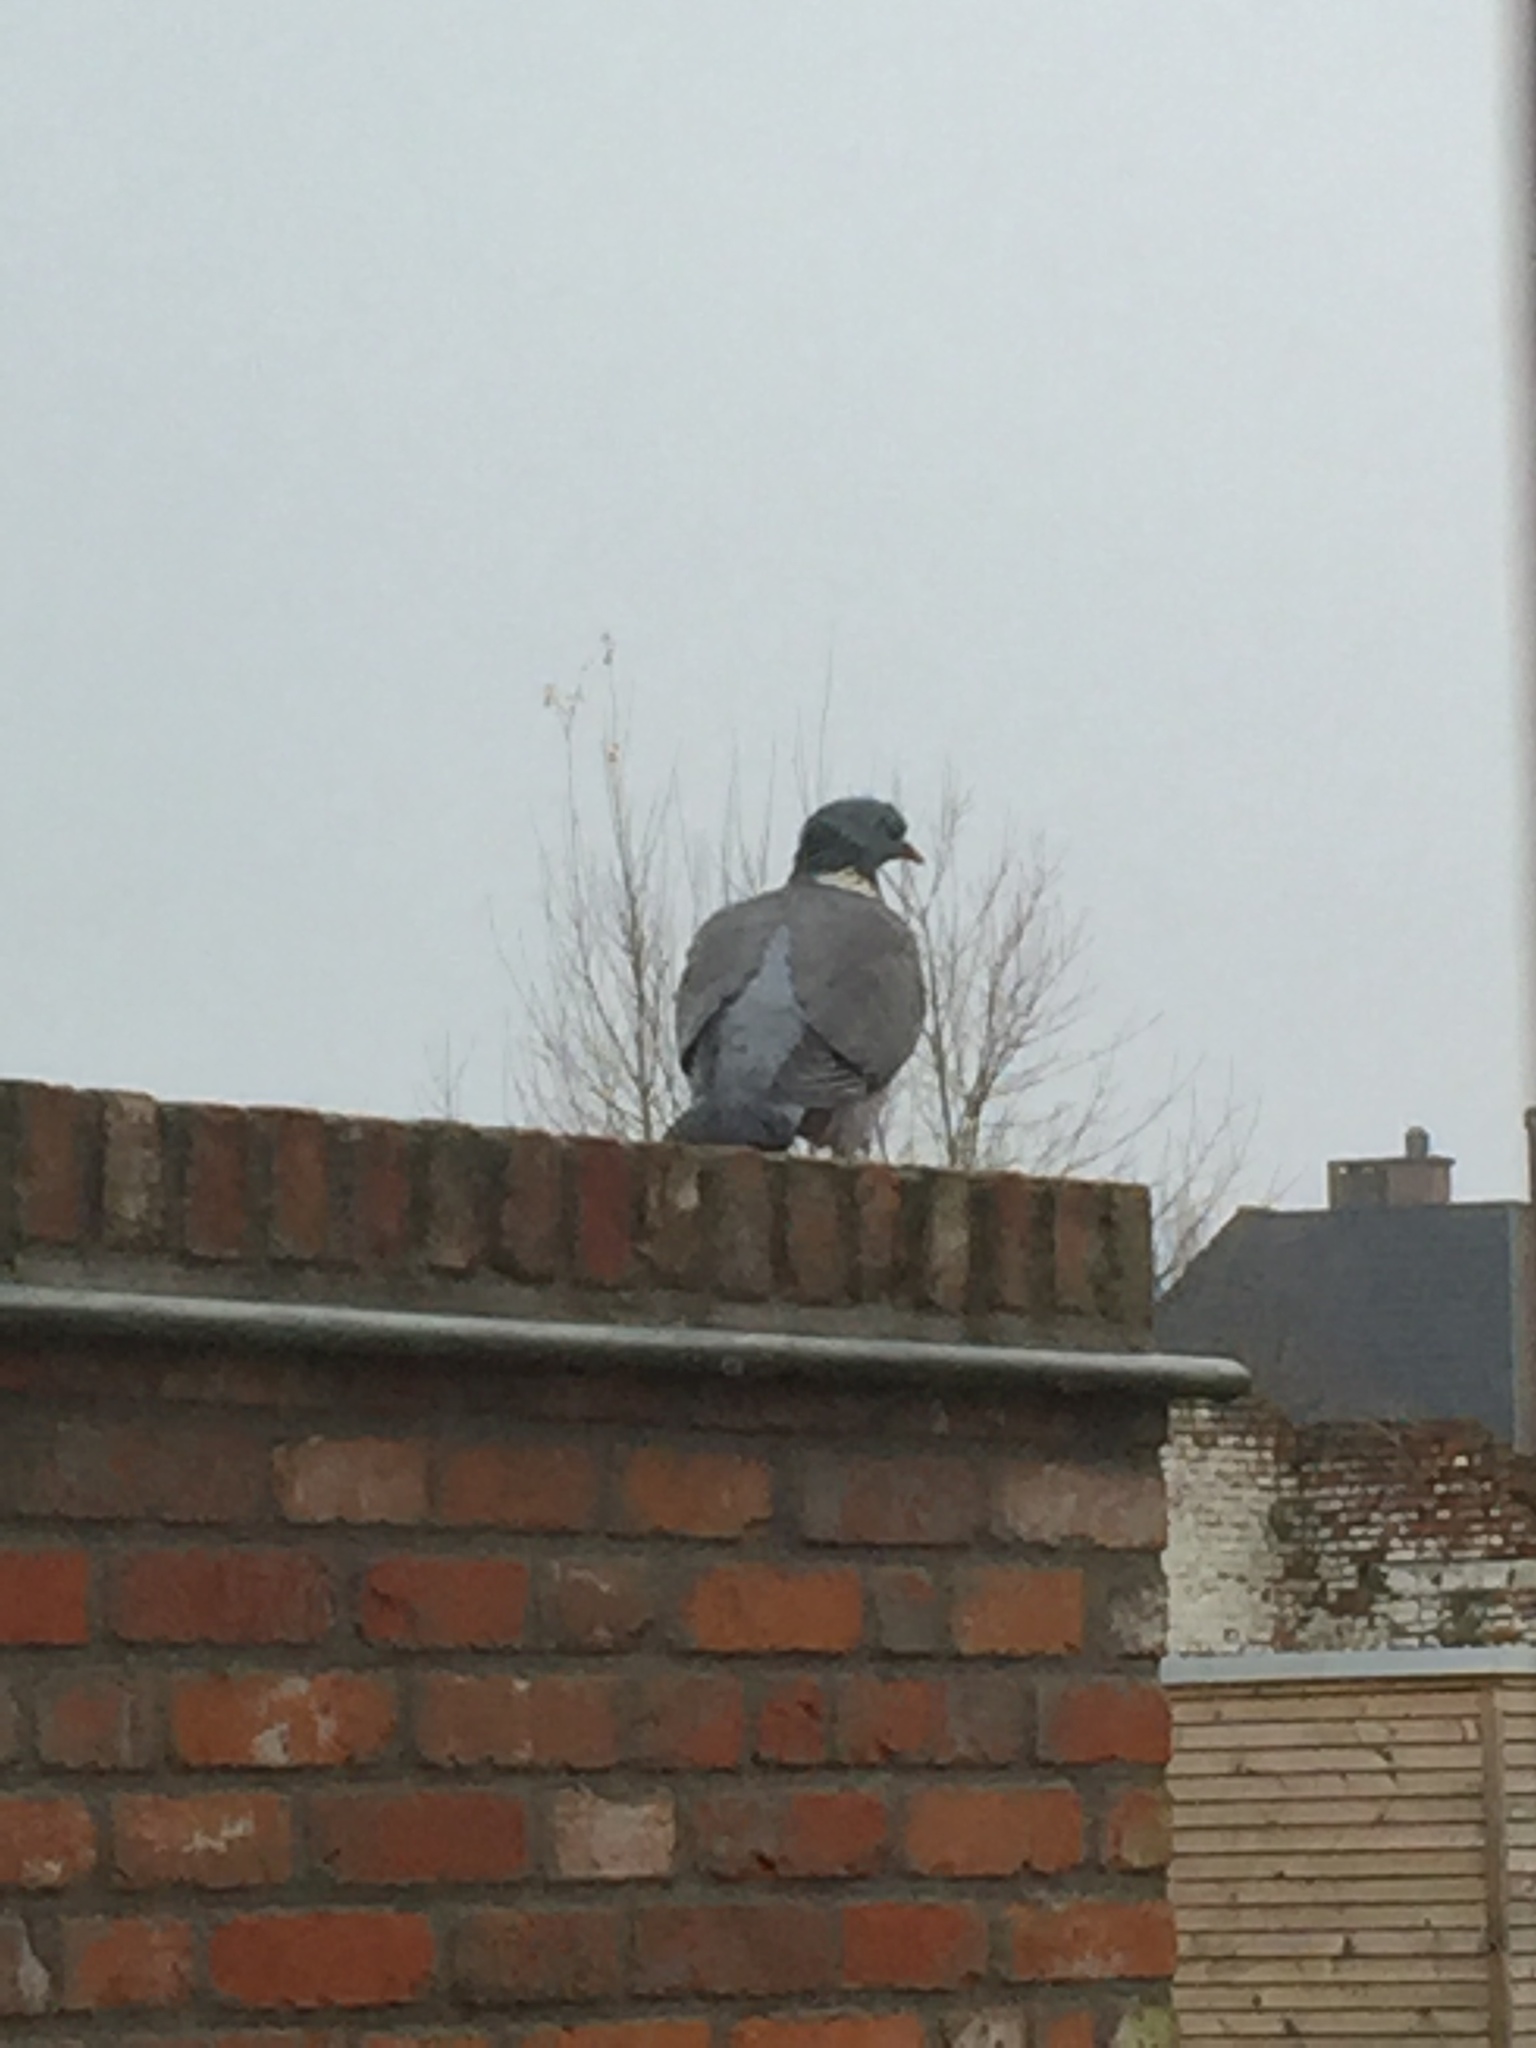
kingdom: Animalia
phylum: Chordata
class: Aves
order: Columbiformes
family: Columbidae
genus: Columba
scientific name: Columba palumbus
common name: Common wood pigeon
